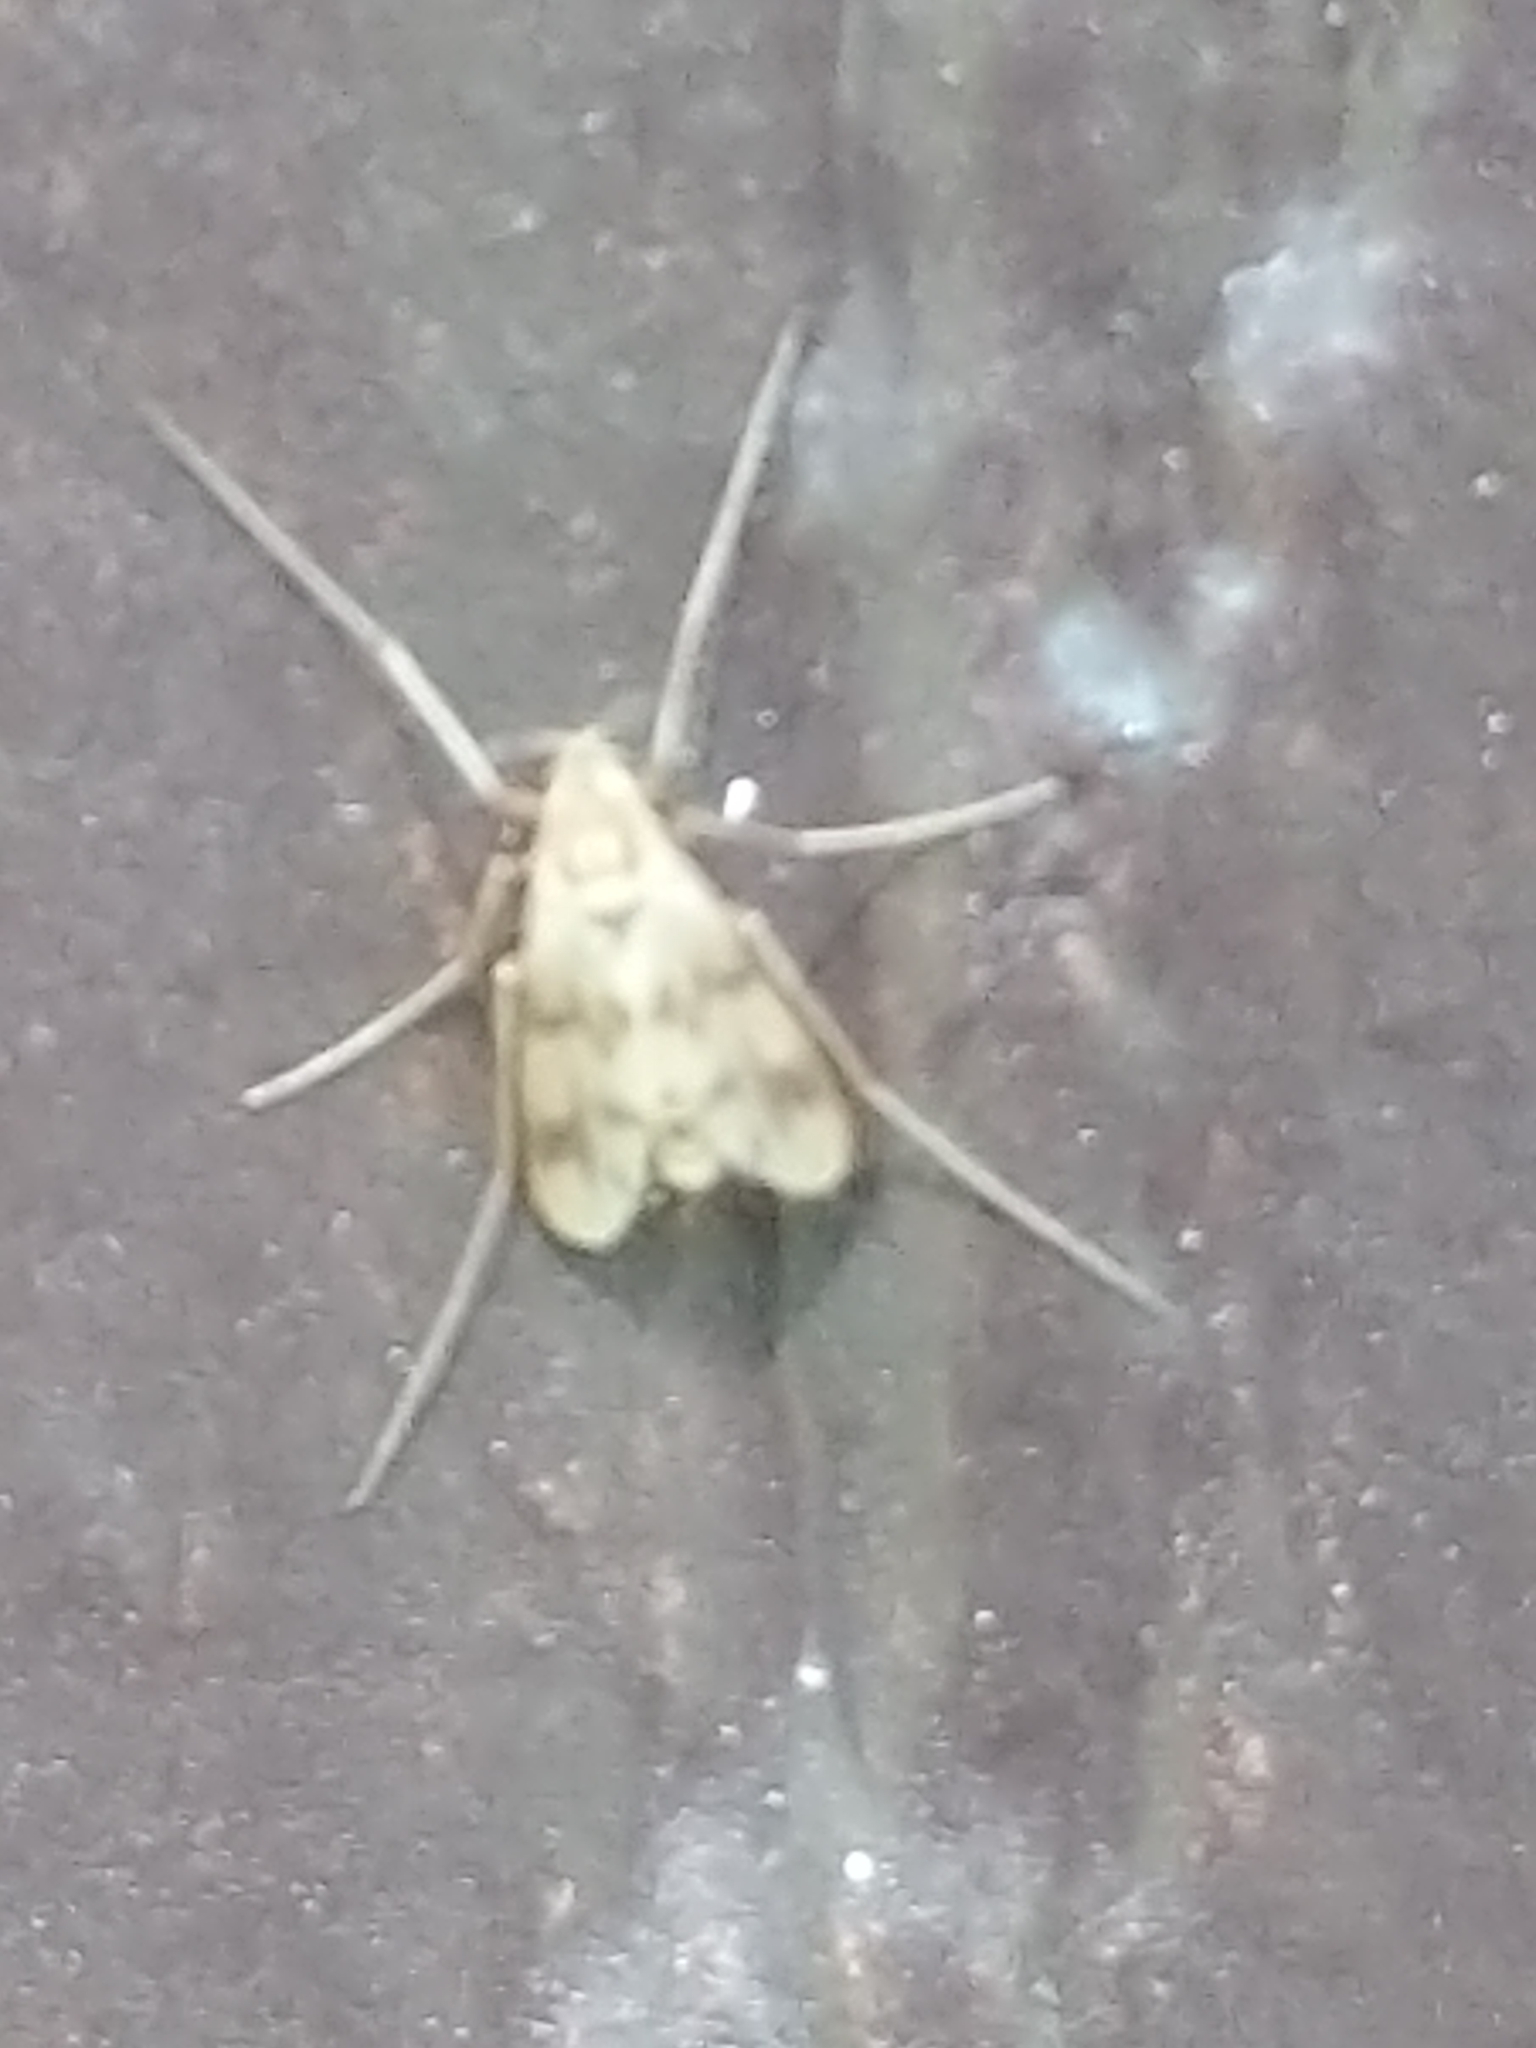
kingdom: Animalia
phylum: Arthropoda
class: Insecta
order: Diptera
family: Chironomidae
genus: Brundiniella
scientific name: Brundiniella eumorpha
